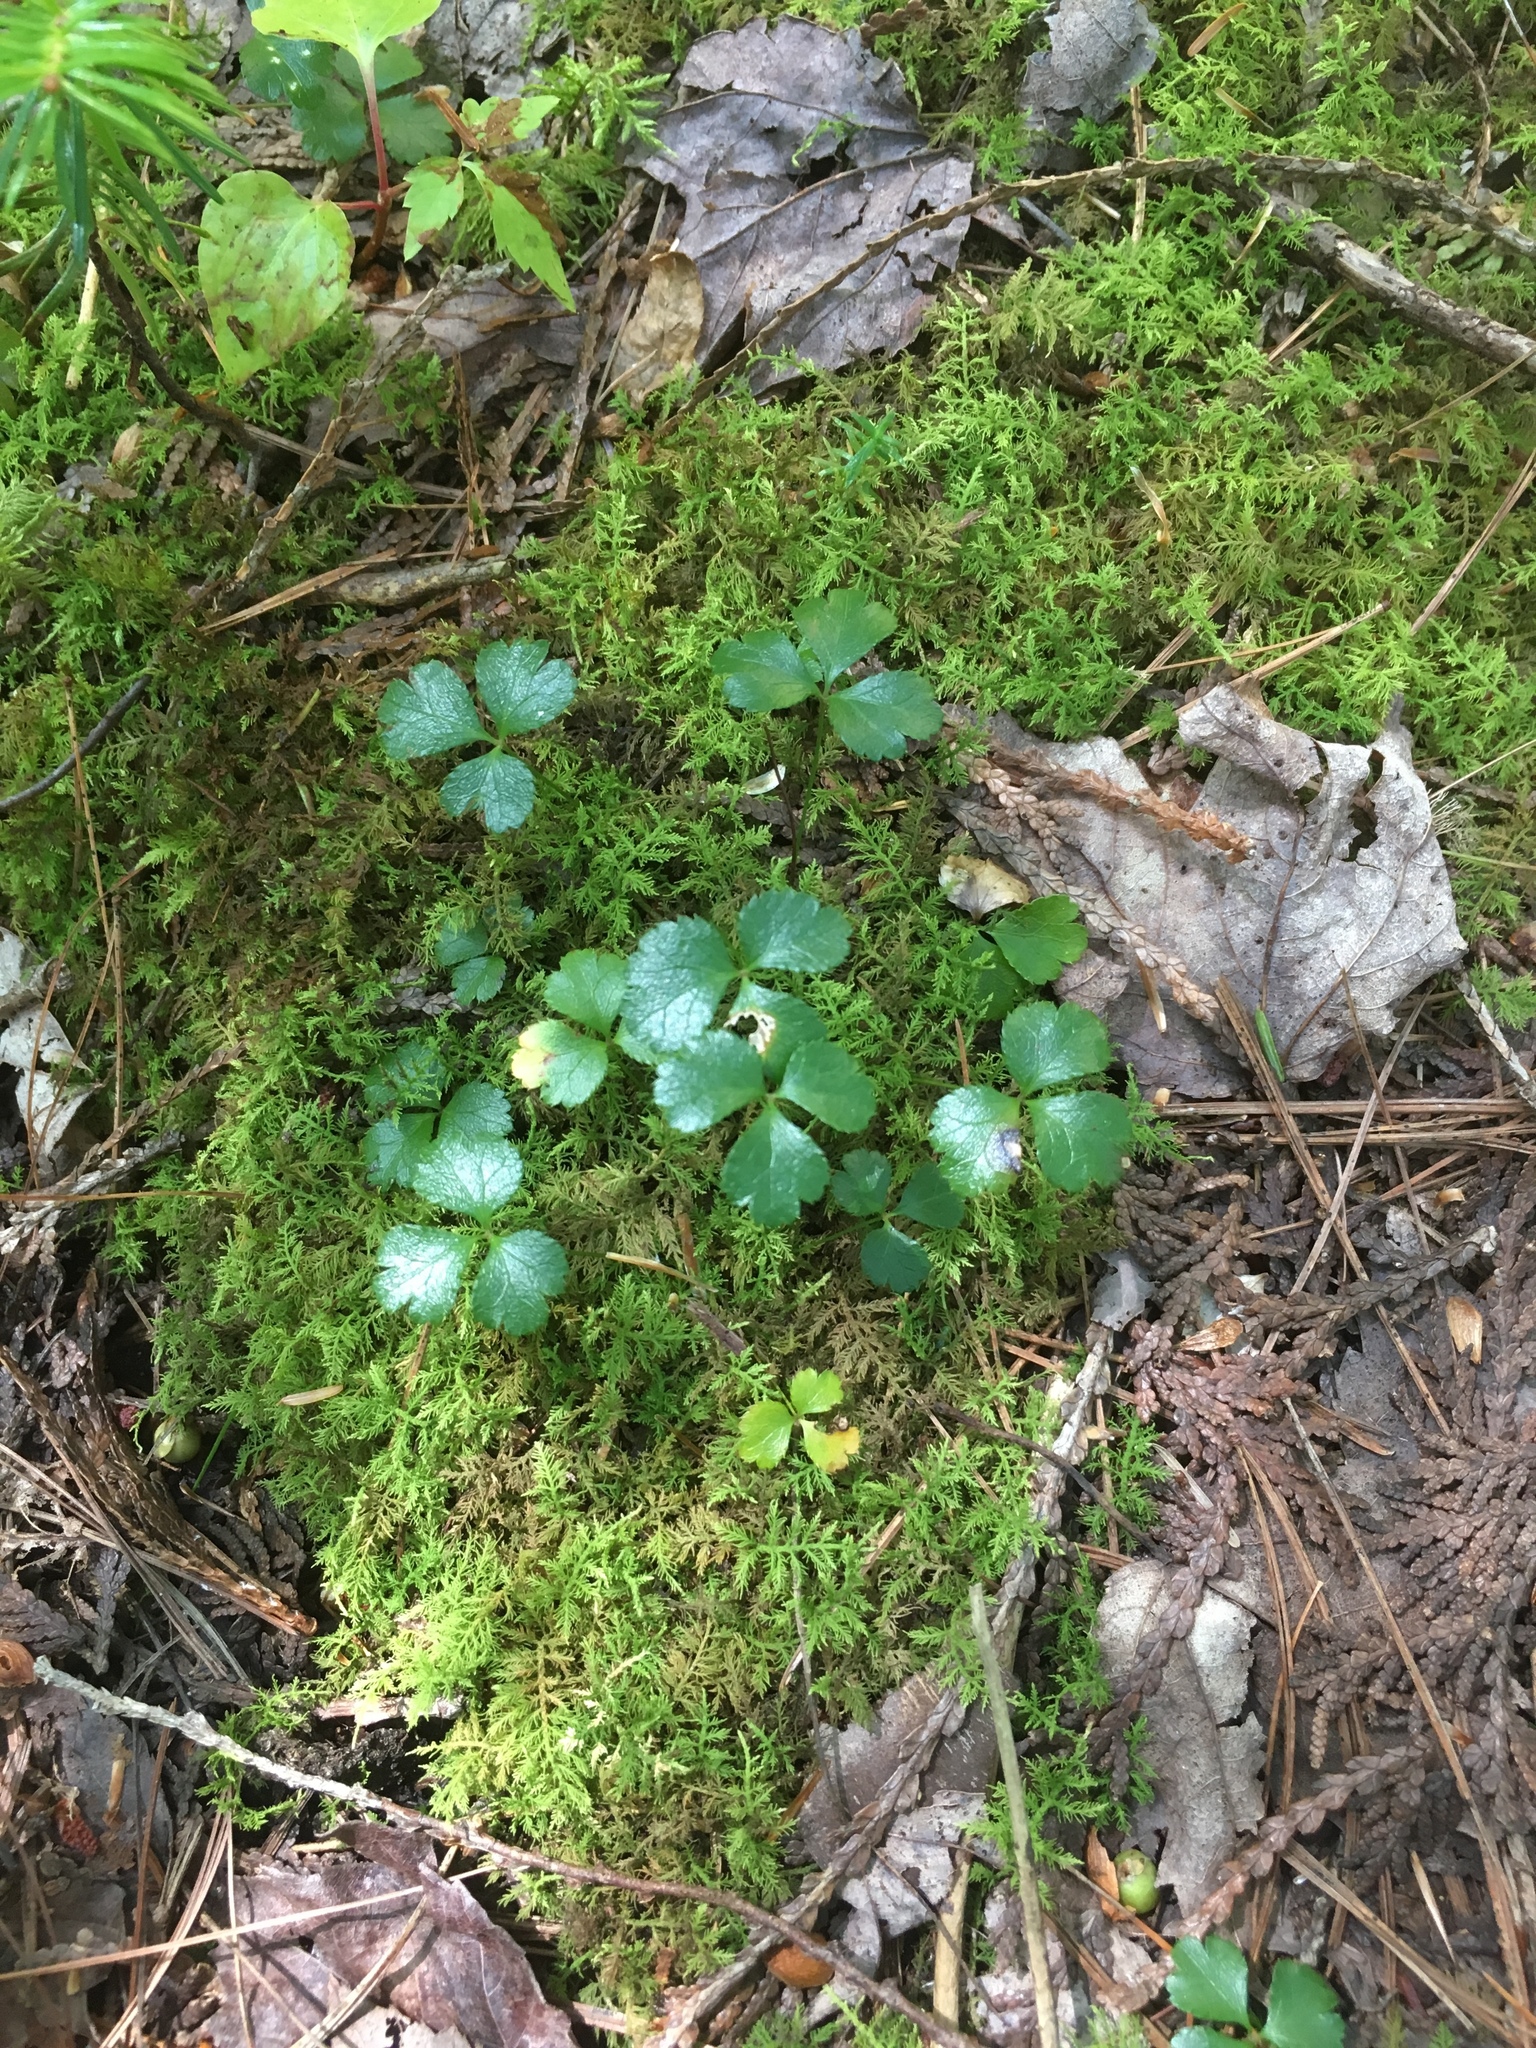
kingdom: Plantae
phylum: Tracheophyta
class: Magnoliopsida
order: Ranunculales
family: Ranunculaceae
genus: Coptis
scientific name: Coptis trifolia
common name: Canker-root
